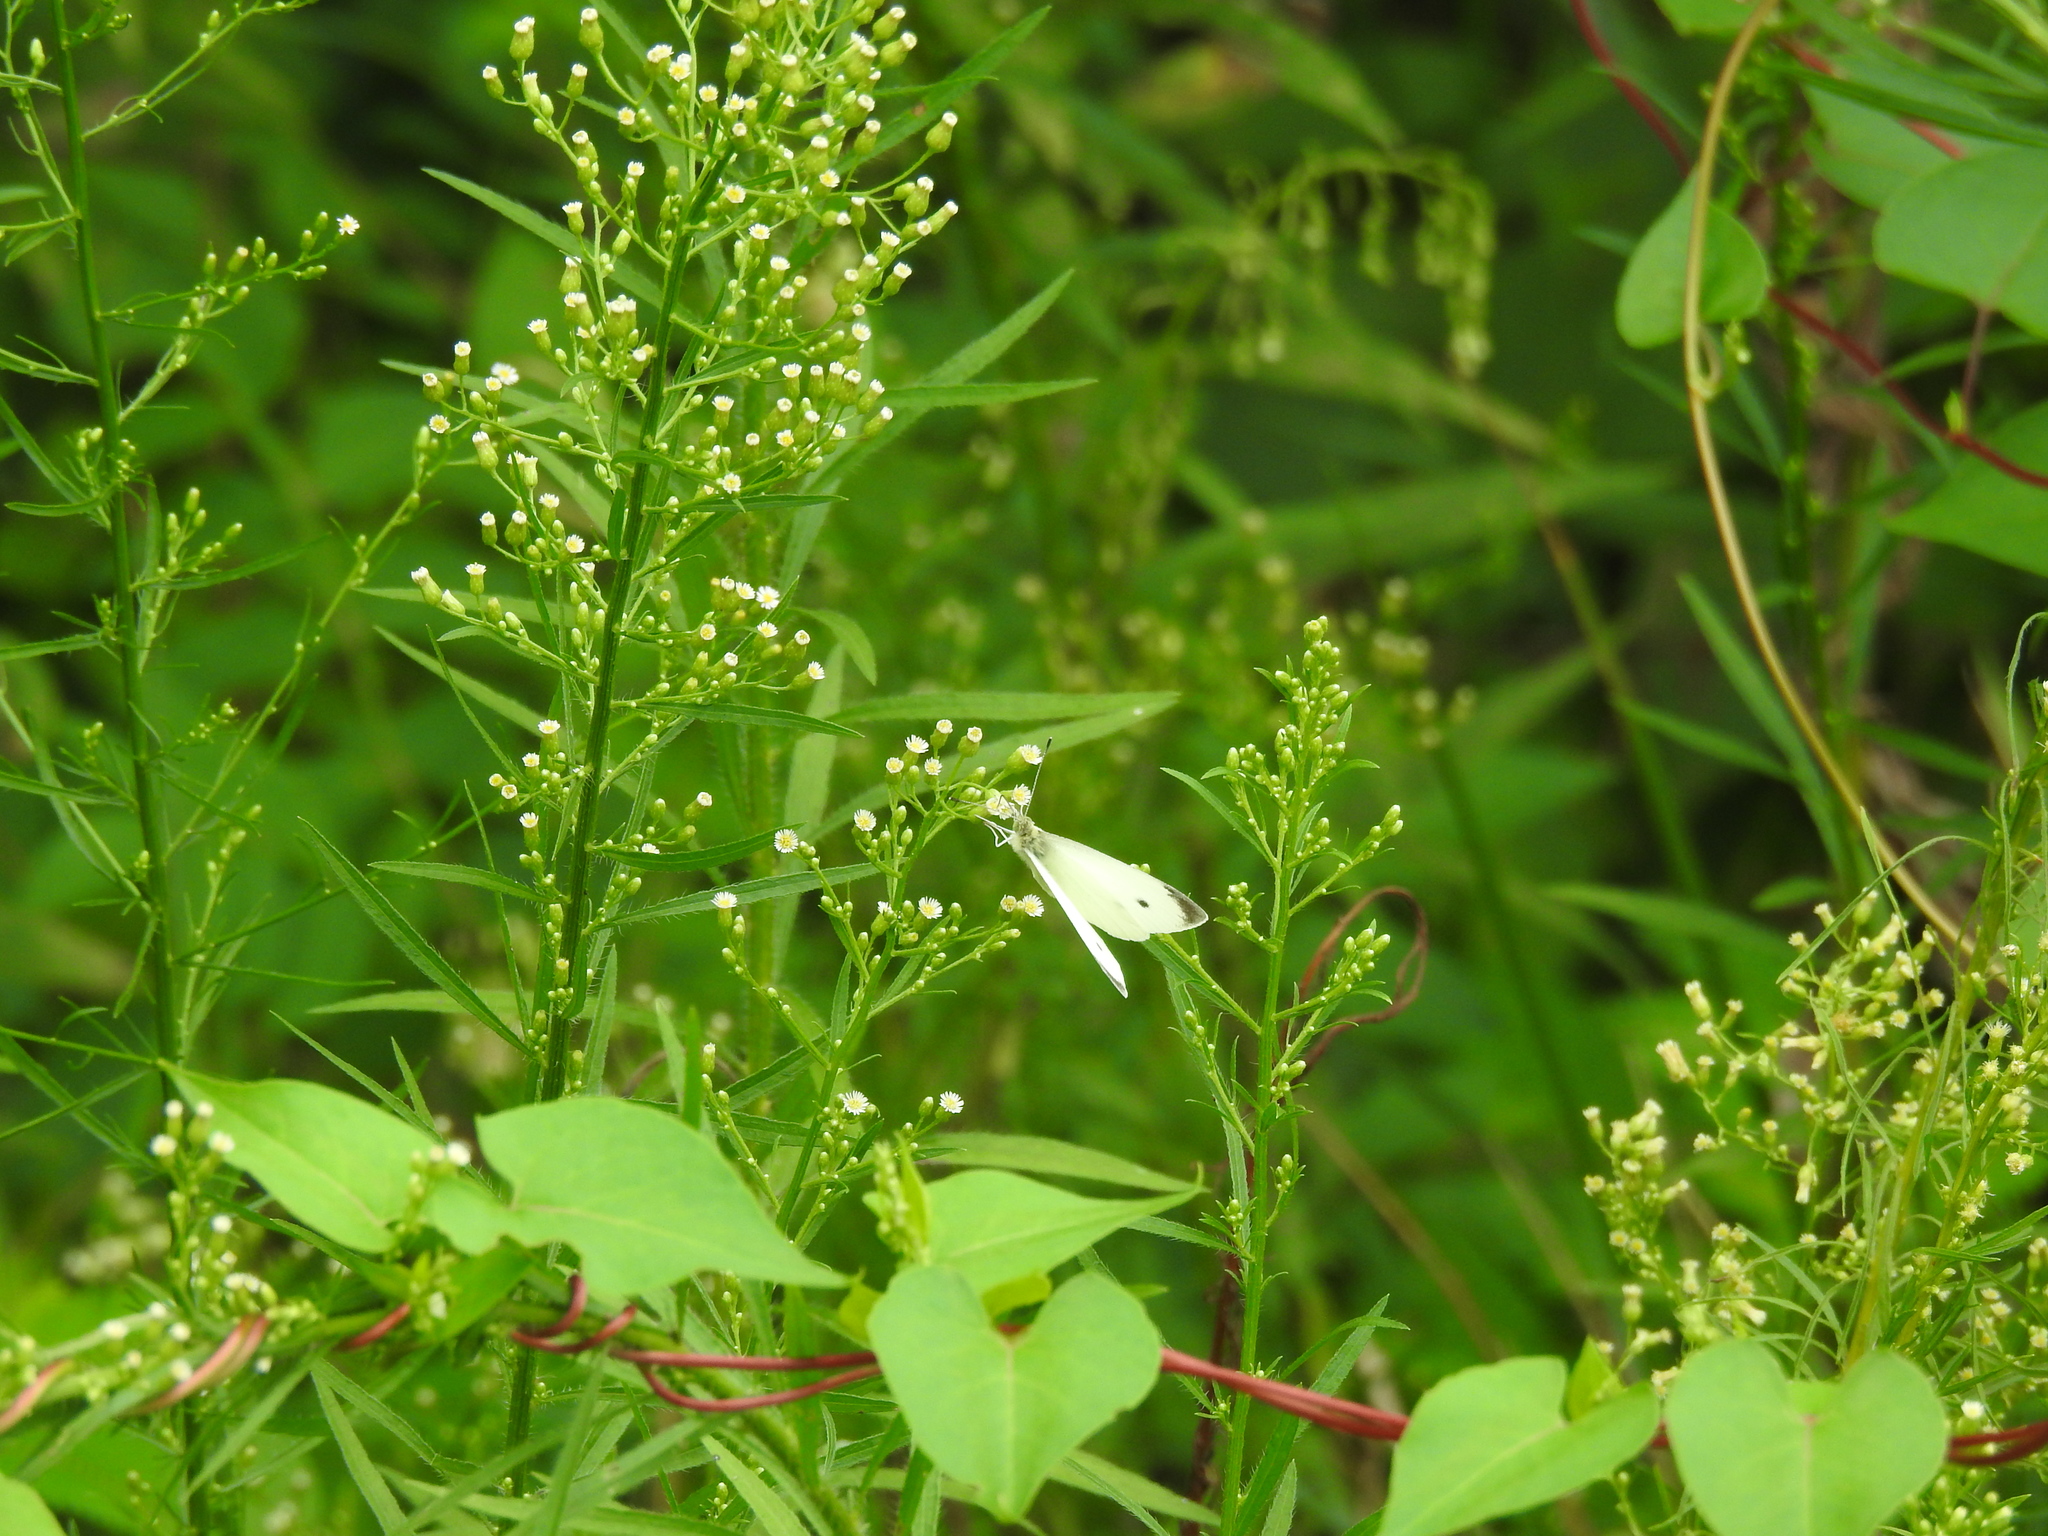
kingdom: Animalia
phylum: Arthropoda
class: Insecta
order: Lepidoptera
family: Pieridae
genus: Pieris
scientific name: Pieris rapae
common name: Small white
